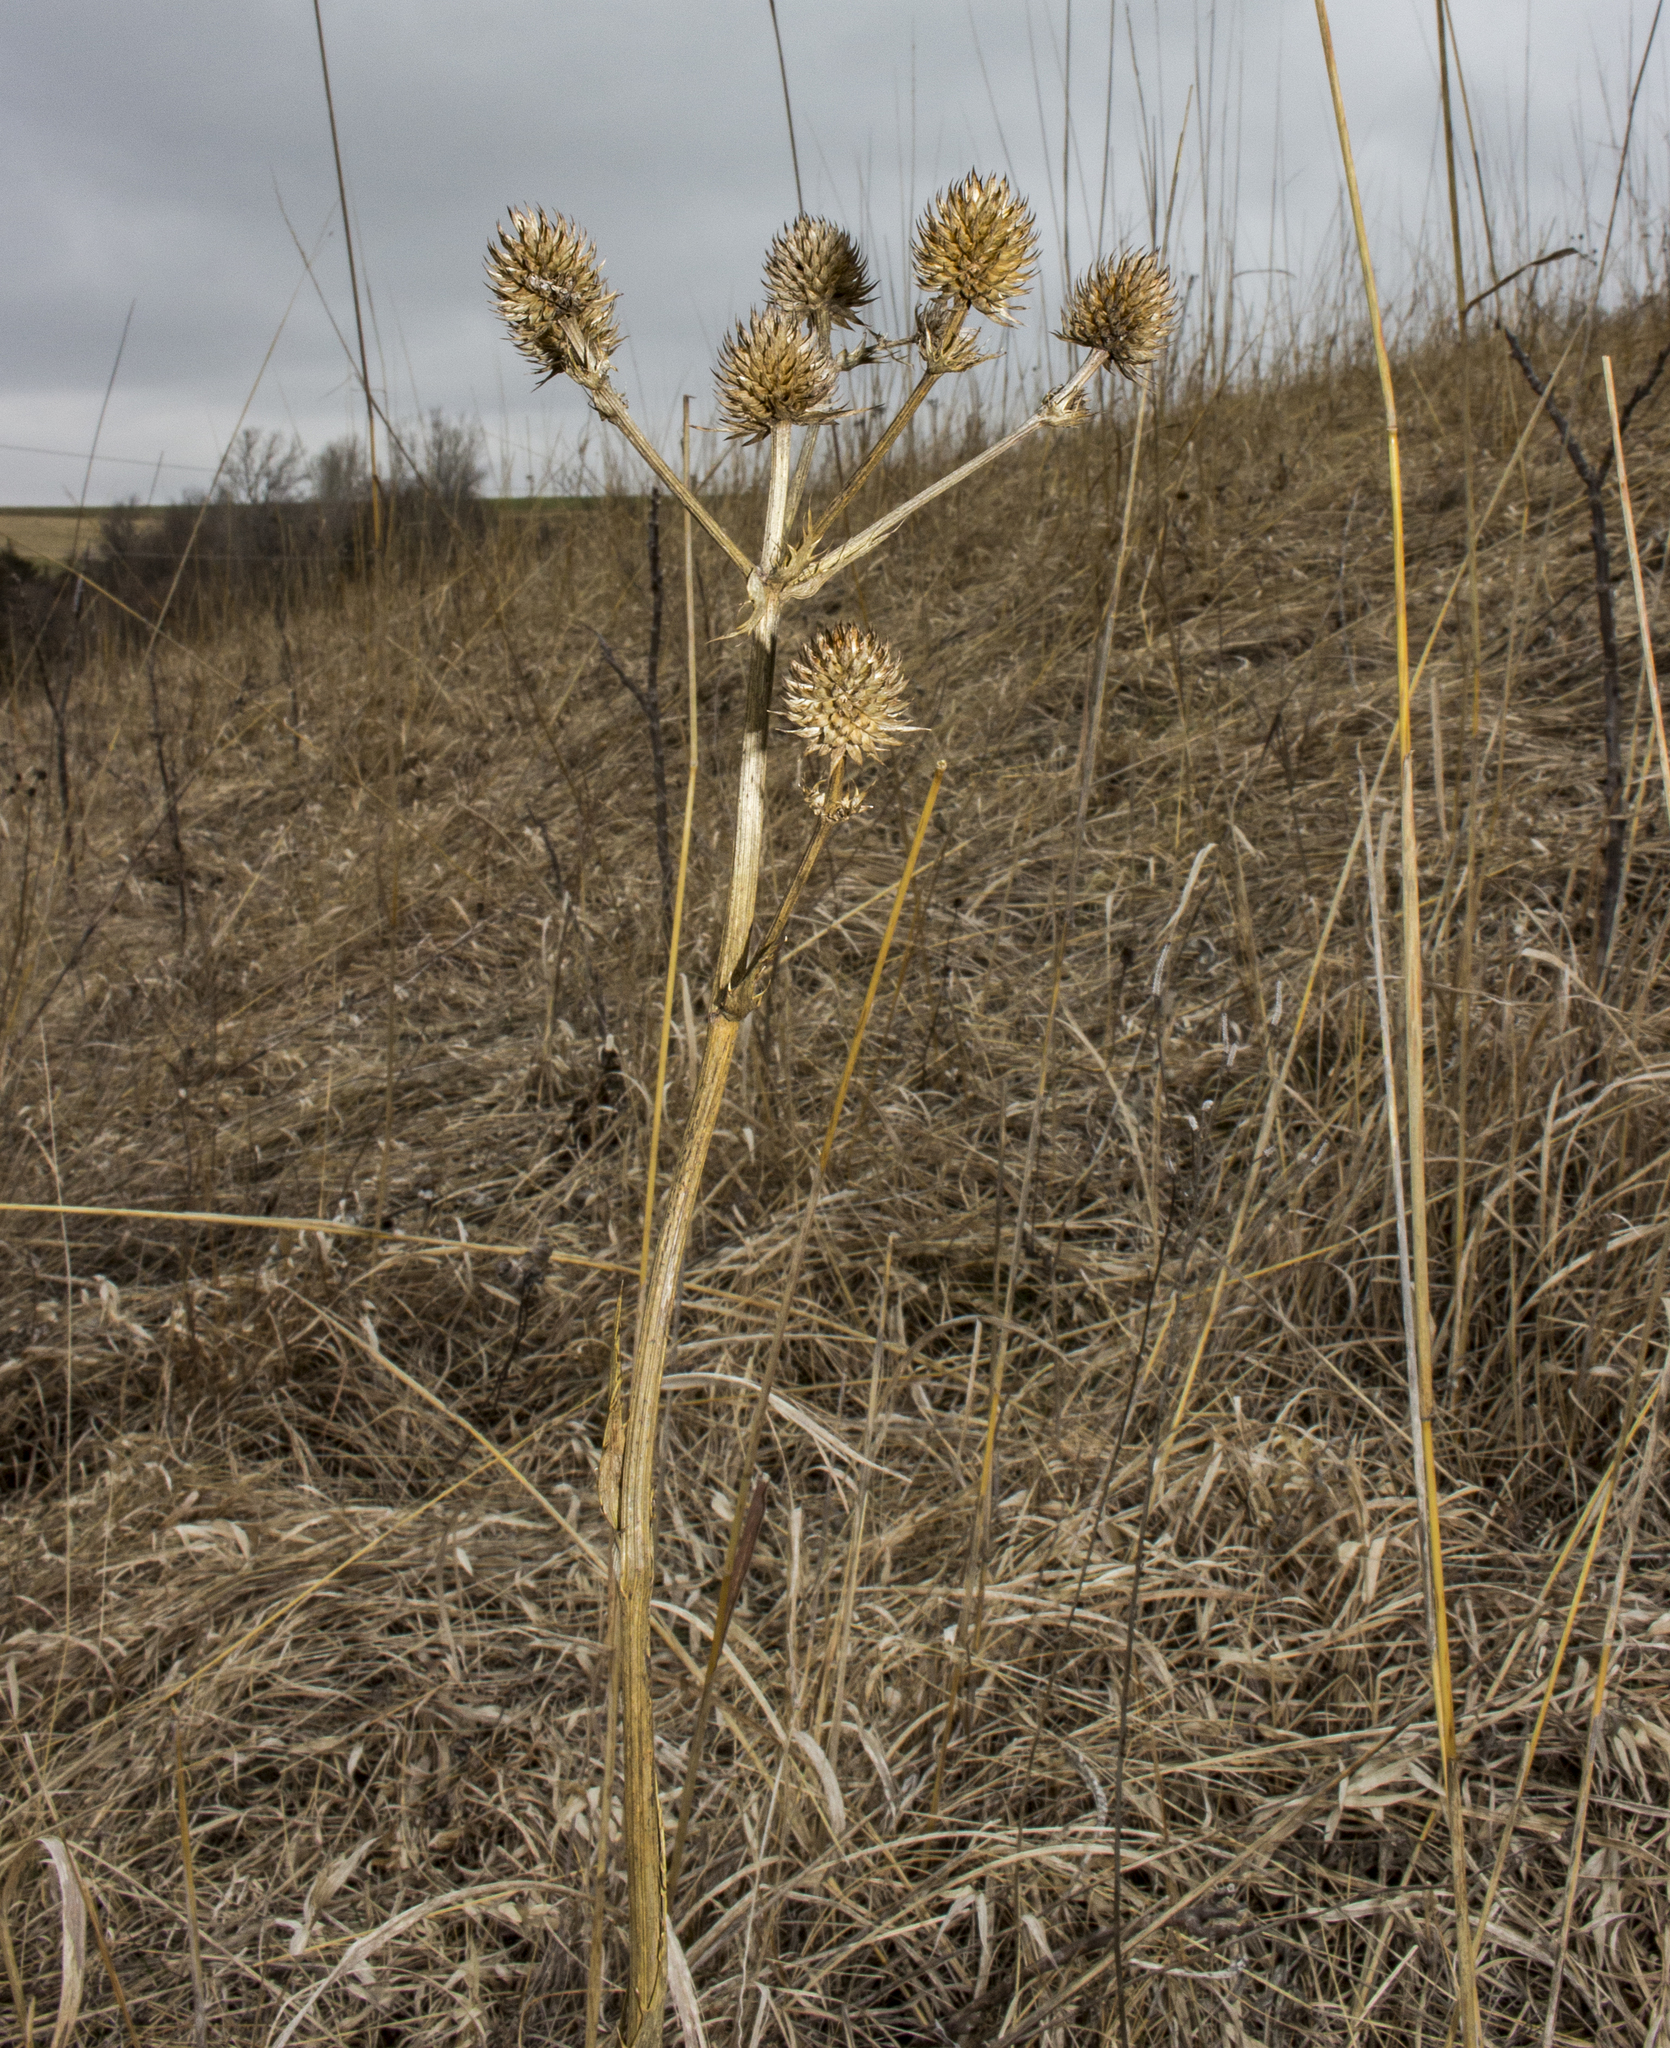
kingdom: Plantae
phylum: Tracheophyta
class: Magnoliopsida
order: Apiales
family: Apiaceae
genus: Eryngium
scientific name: Eryngium yuccifolium
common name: Button eryngo
